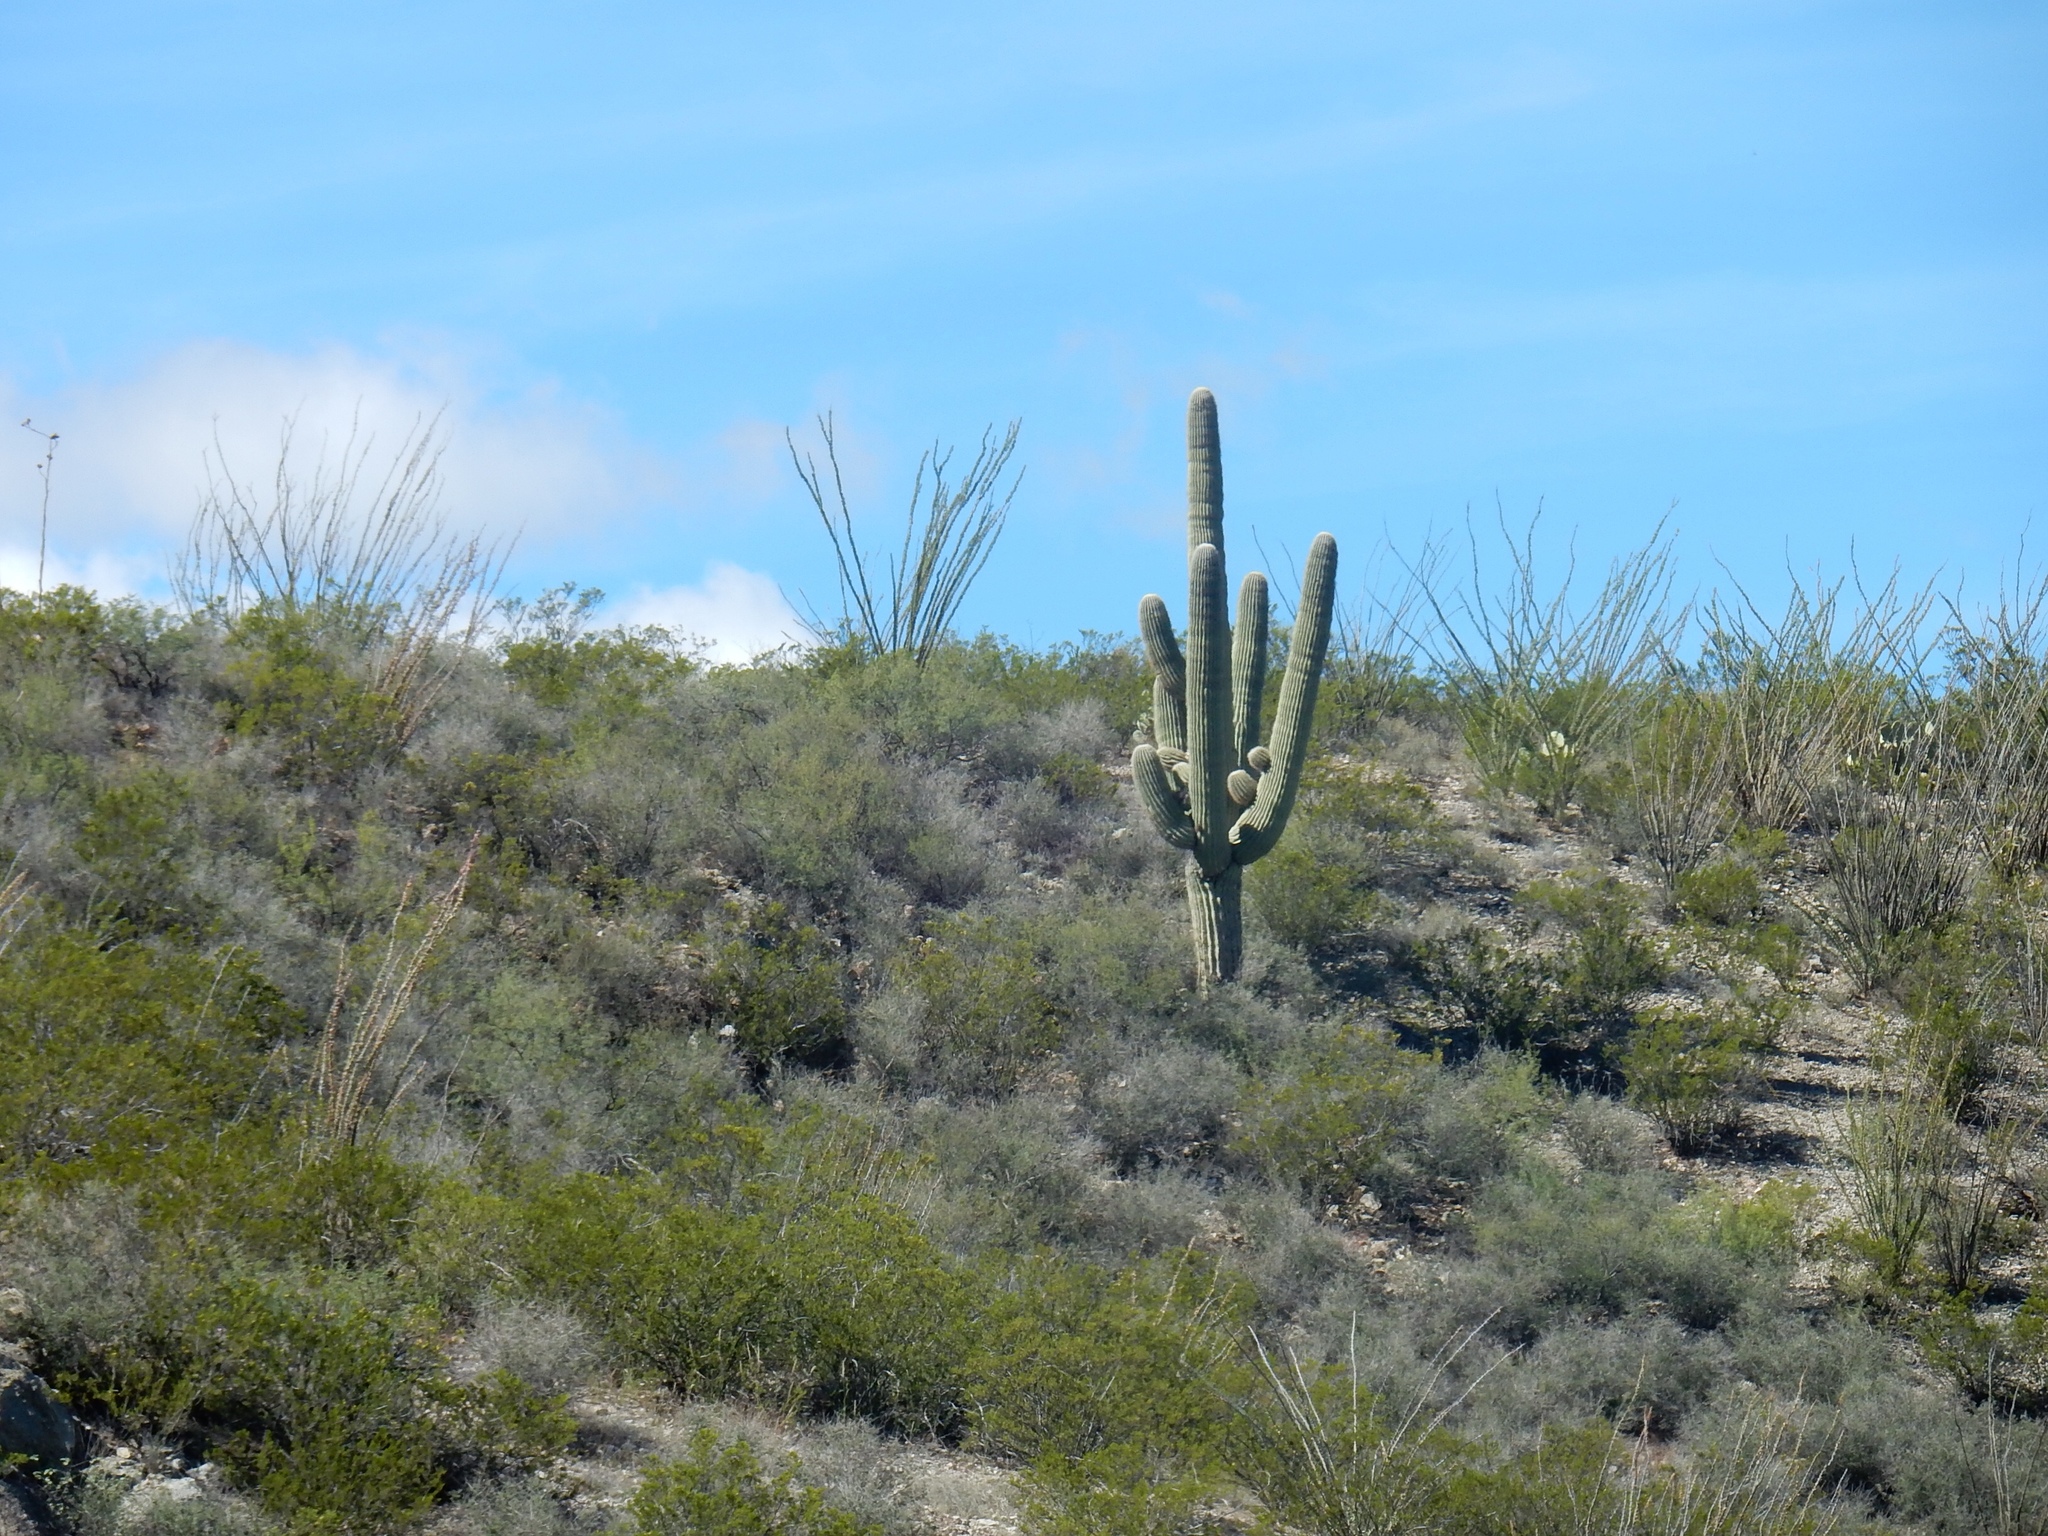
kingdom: Plantae
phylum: Tracheophyta
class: Magnoliopsida
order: Caryophyllales
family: Cactaceae
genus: Carnegiea
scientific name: Carnegiea gigantea
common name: Saguaro
